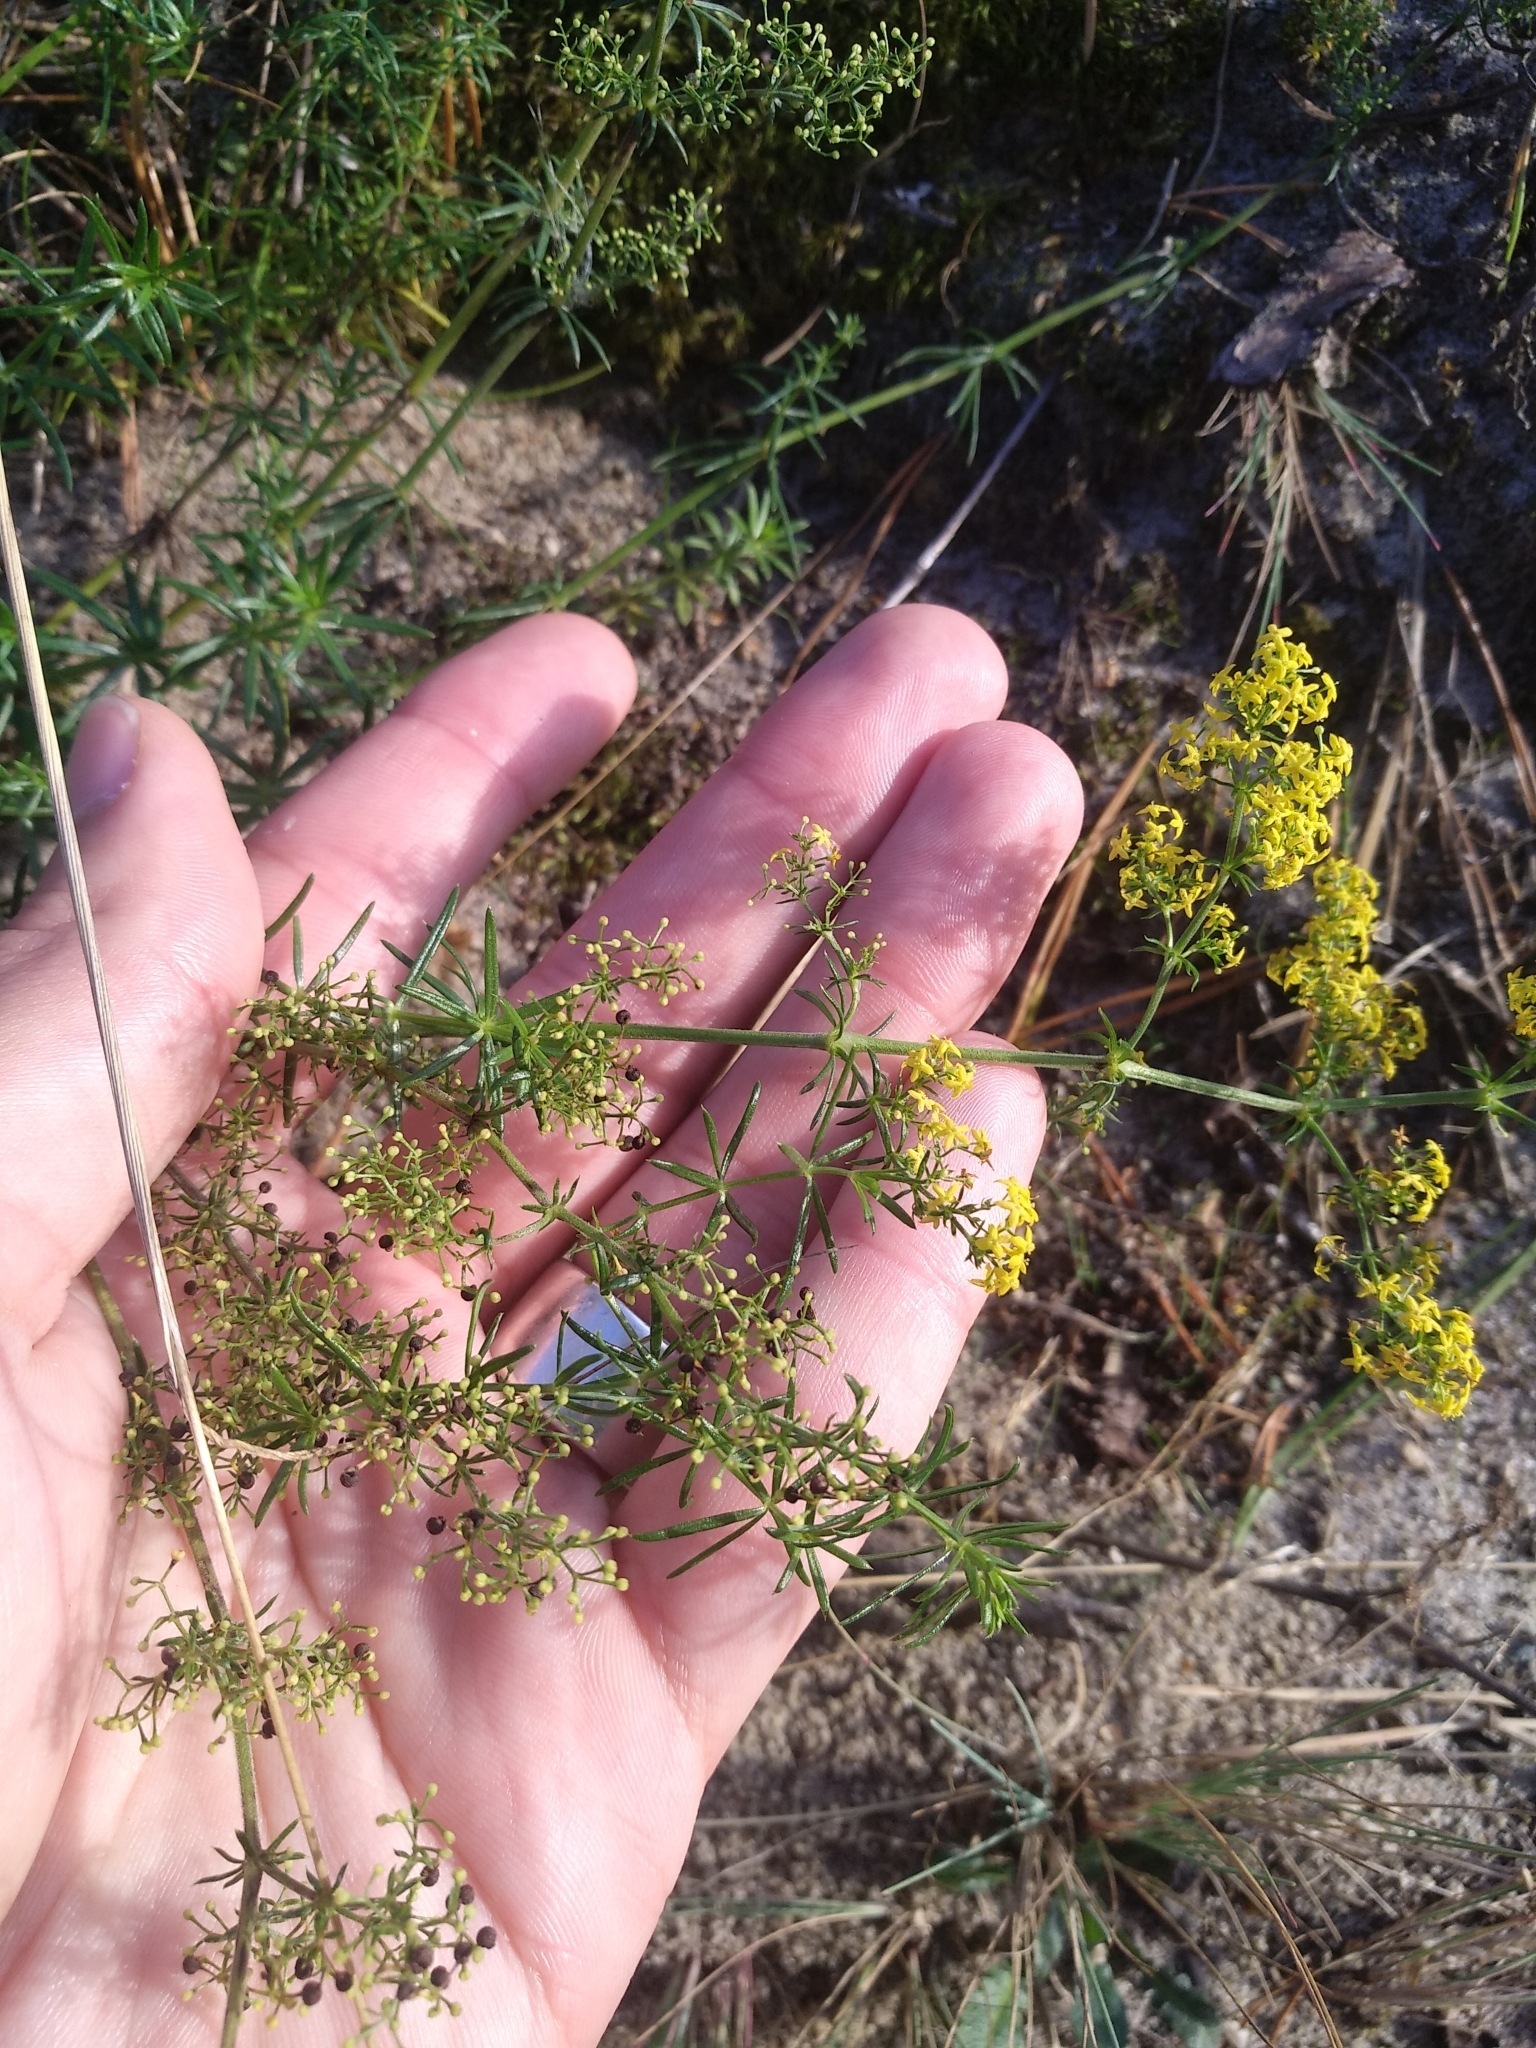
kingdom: Plantae
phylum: Tracheophyta
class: Magnoliopsida
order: Gentianales
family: Rubiaceae
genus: Galium
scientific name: Galium verum
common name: Lady's bedstraw
